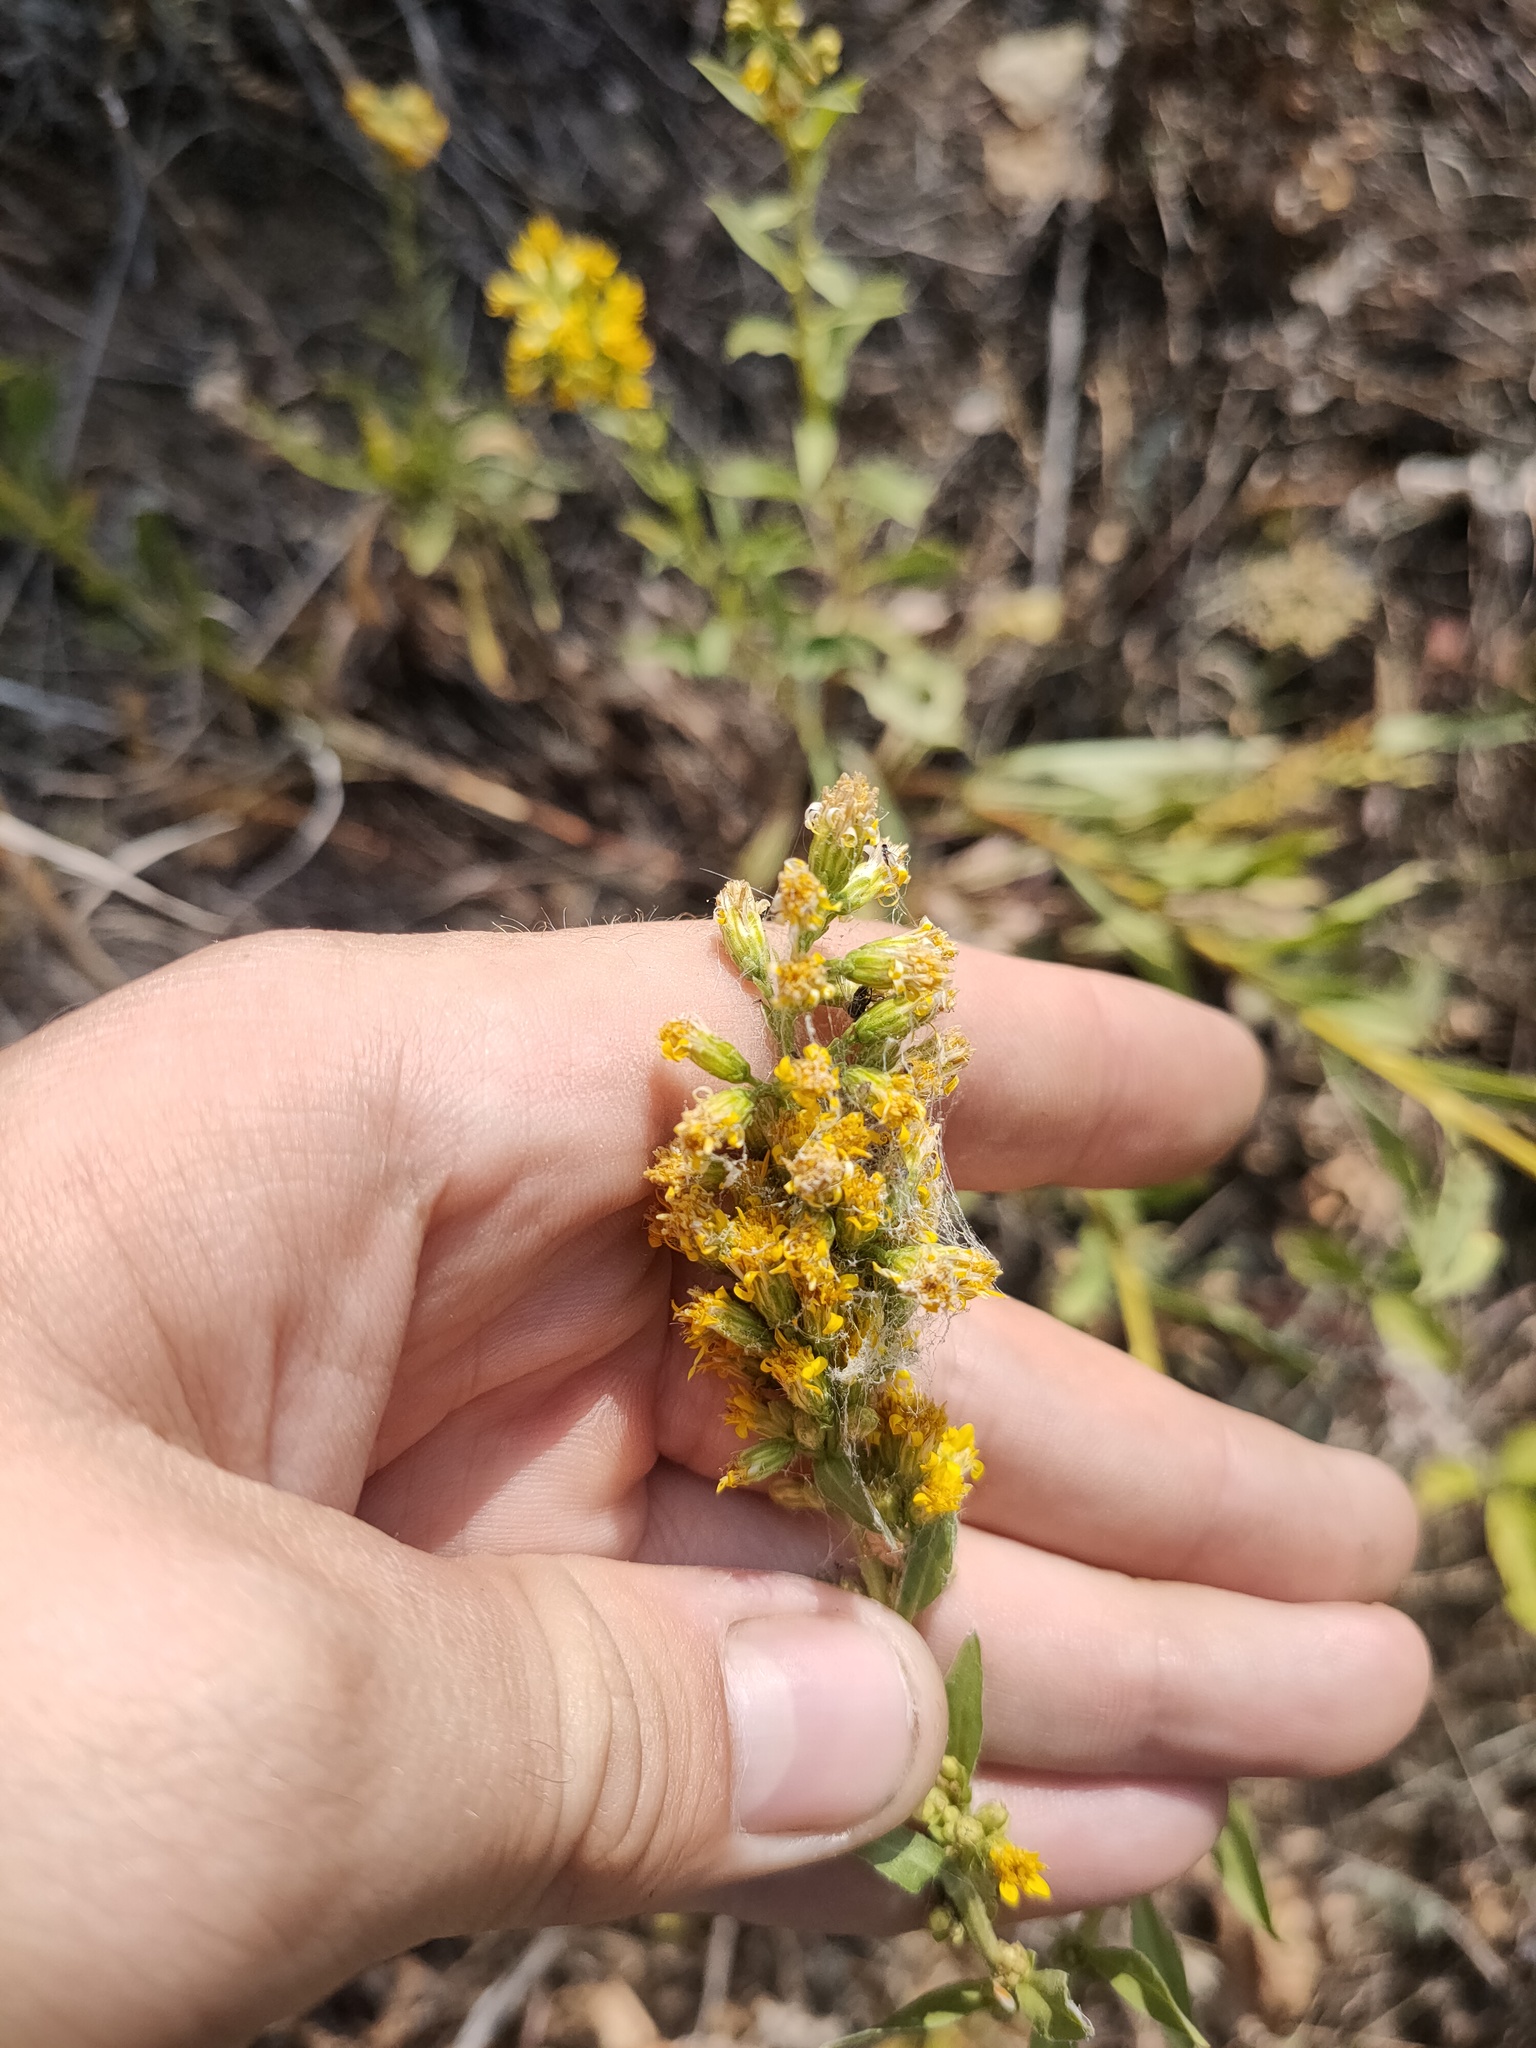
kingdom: Plantae
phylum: Tracheophyta
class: Magnoliopsida
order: Asterales
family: Asteraceae
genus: Solidago
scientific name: Solidago virgaurea
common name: Goldenrod
